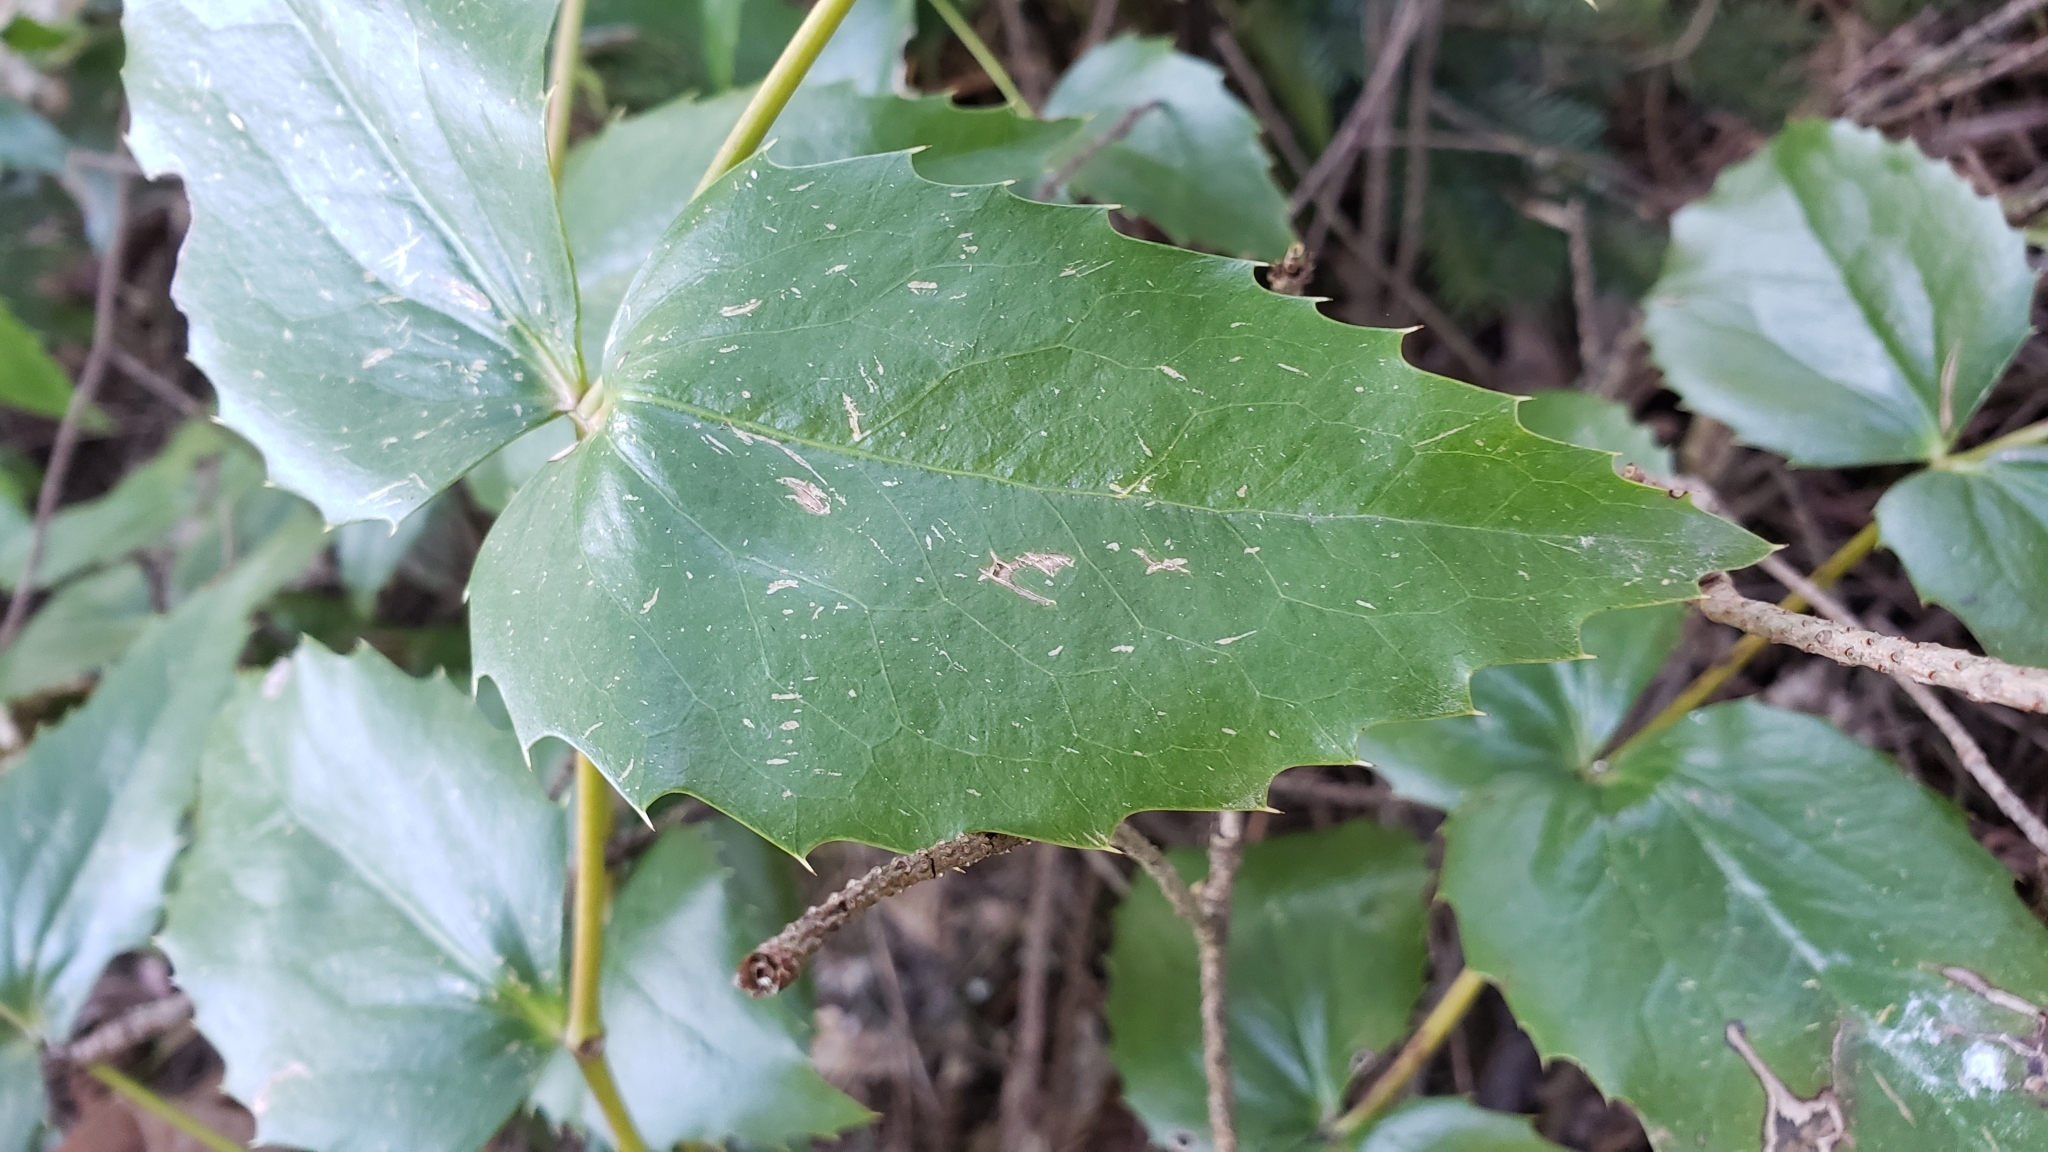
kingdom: Plantae
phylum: Tracheophyta
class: Magnoliopsida
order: Ranunculales
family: Berberidaceae
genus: Mahonia
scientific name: Mahonia nervosa
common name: Cascade oregon-grape
